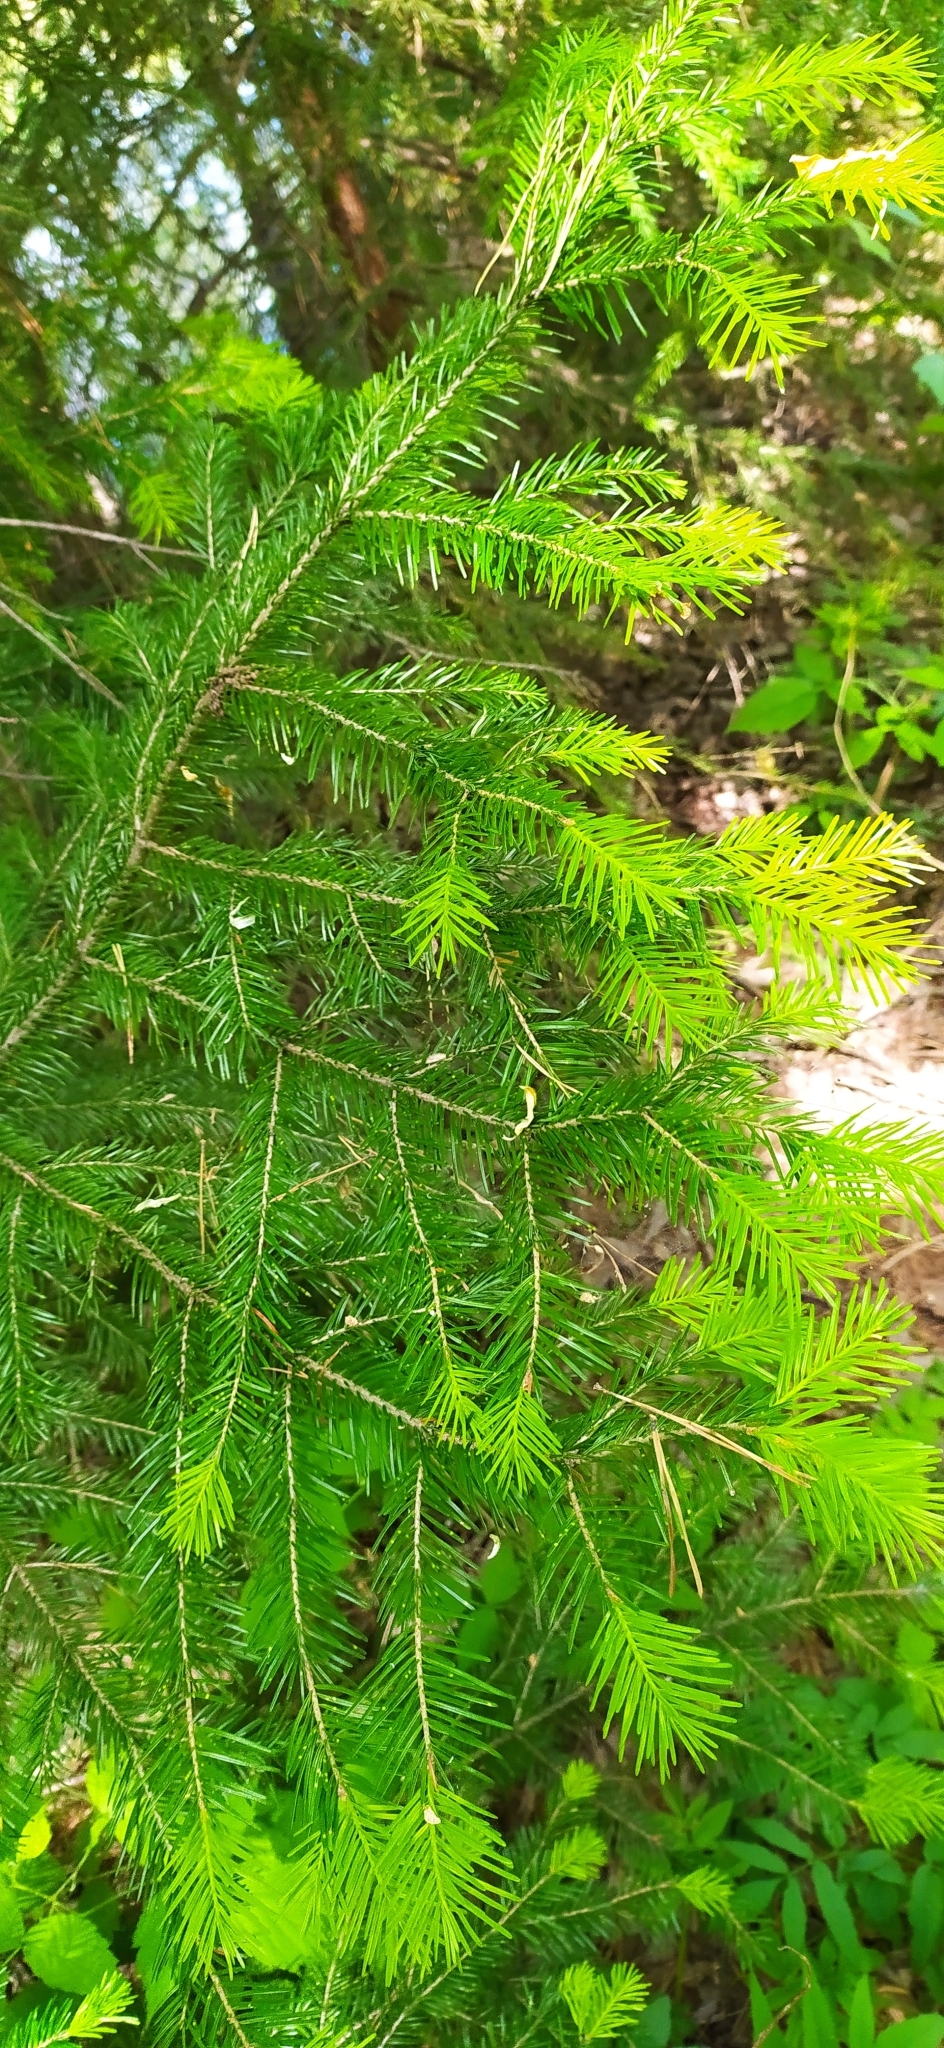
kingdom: Plantae
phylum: Tracheophyta
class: Pinopsida
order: Pinales
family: Pinaceae
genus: Abies
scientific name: Abies sibirica
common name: Siberian fir
